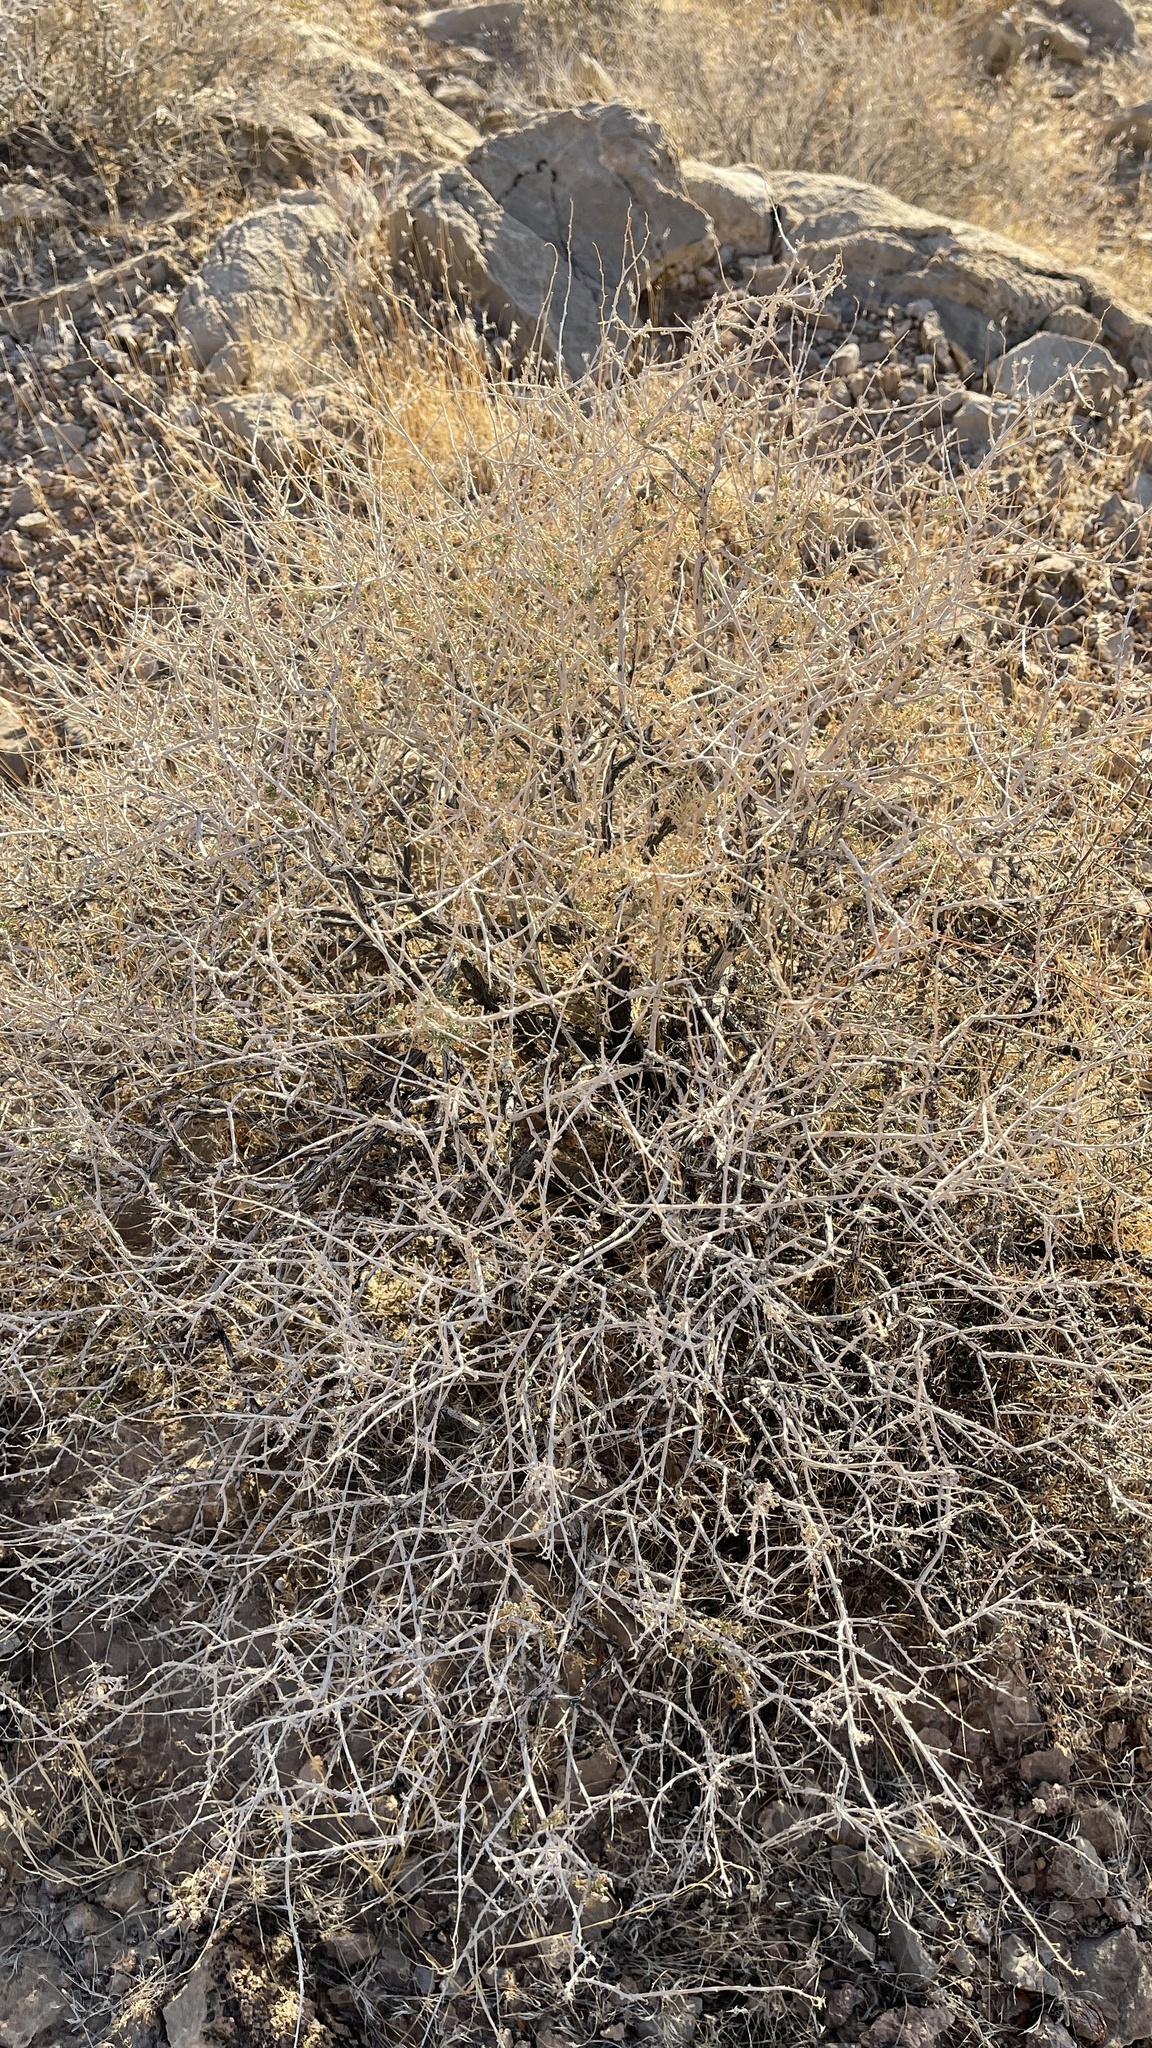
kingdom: Plantae
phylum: Tracheophyta
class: Magnoliopsida
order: Asterales
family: Asteraceae
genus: Ambrosia
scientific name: Ambrosia dumosa
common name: Bur-sage
